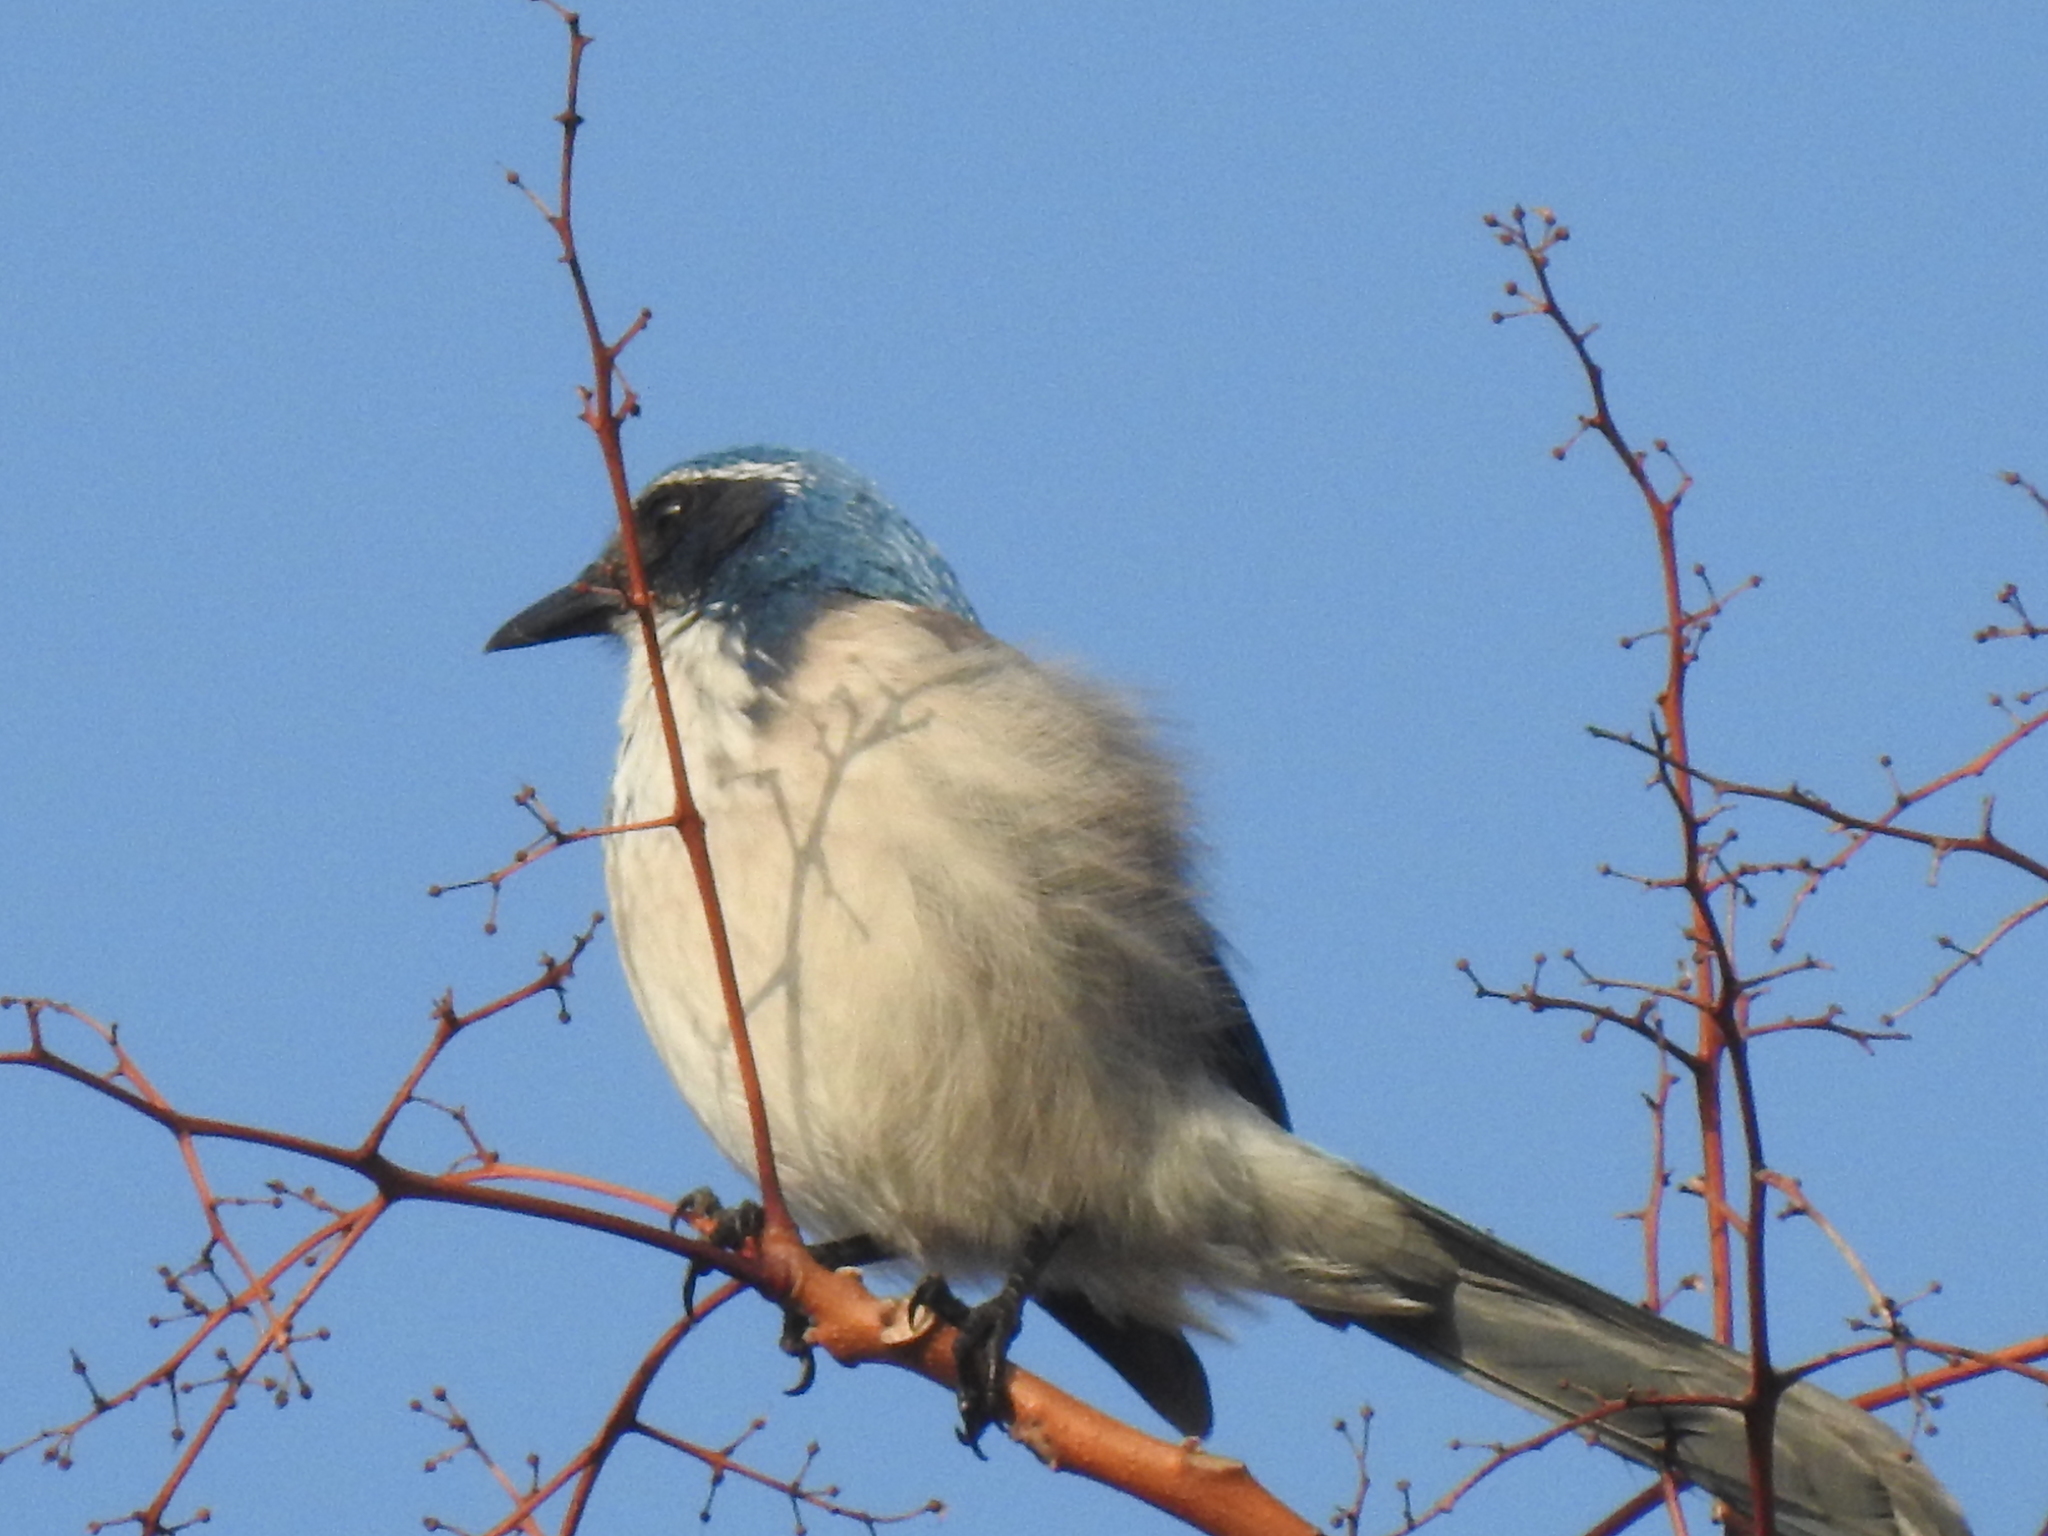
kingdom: Animalia
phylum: Chordata
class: Aves
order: Passeriformes
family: Corvidae
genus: Aphelocoma
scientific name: Aphelocoma californica
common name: California scrub-jay
